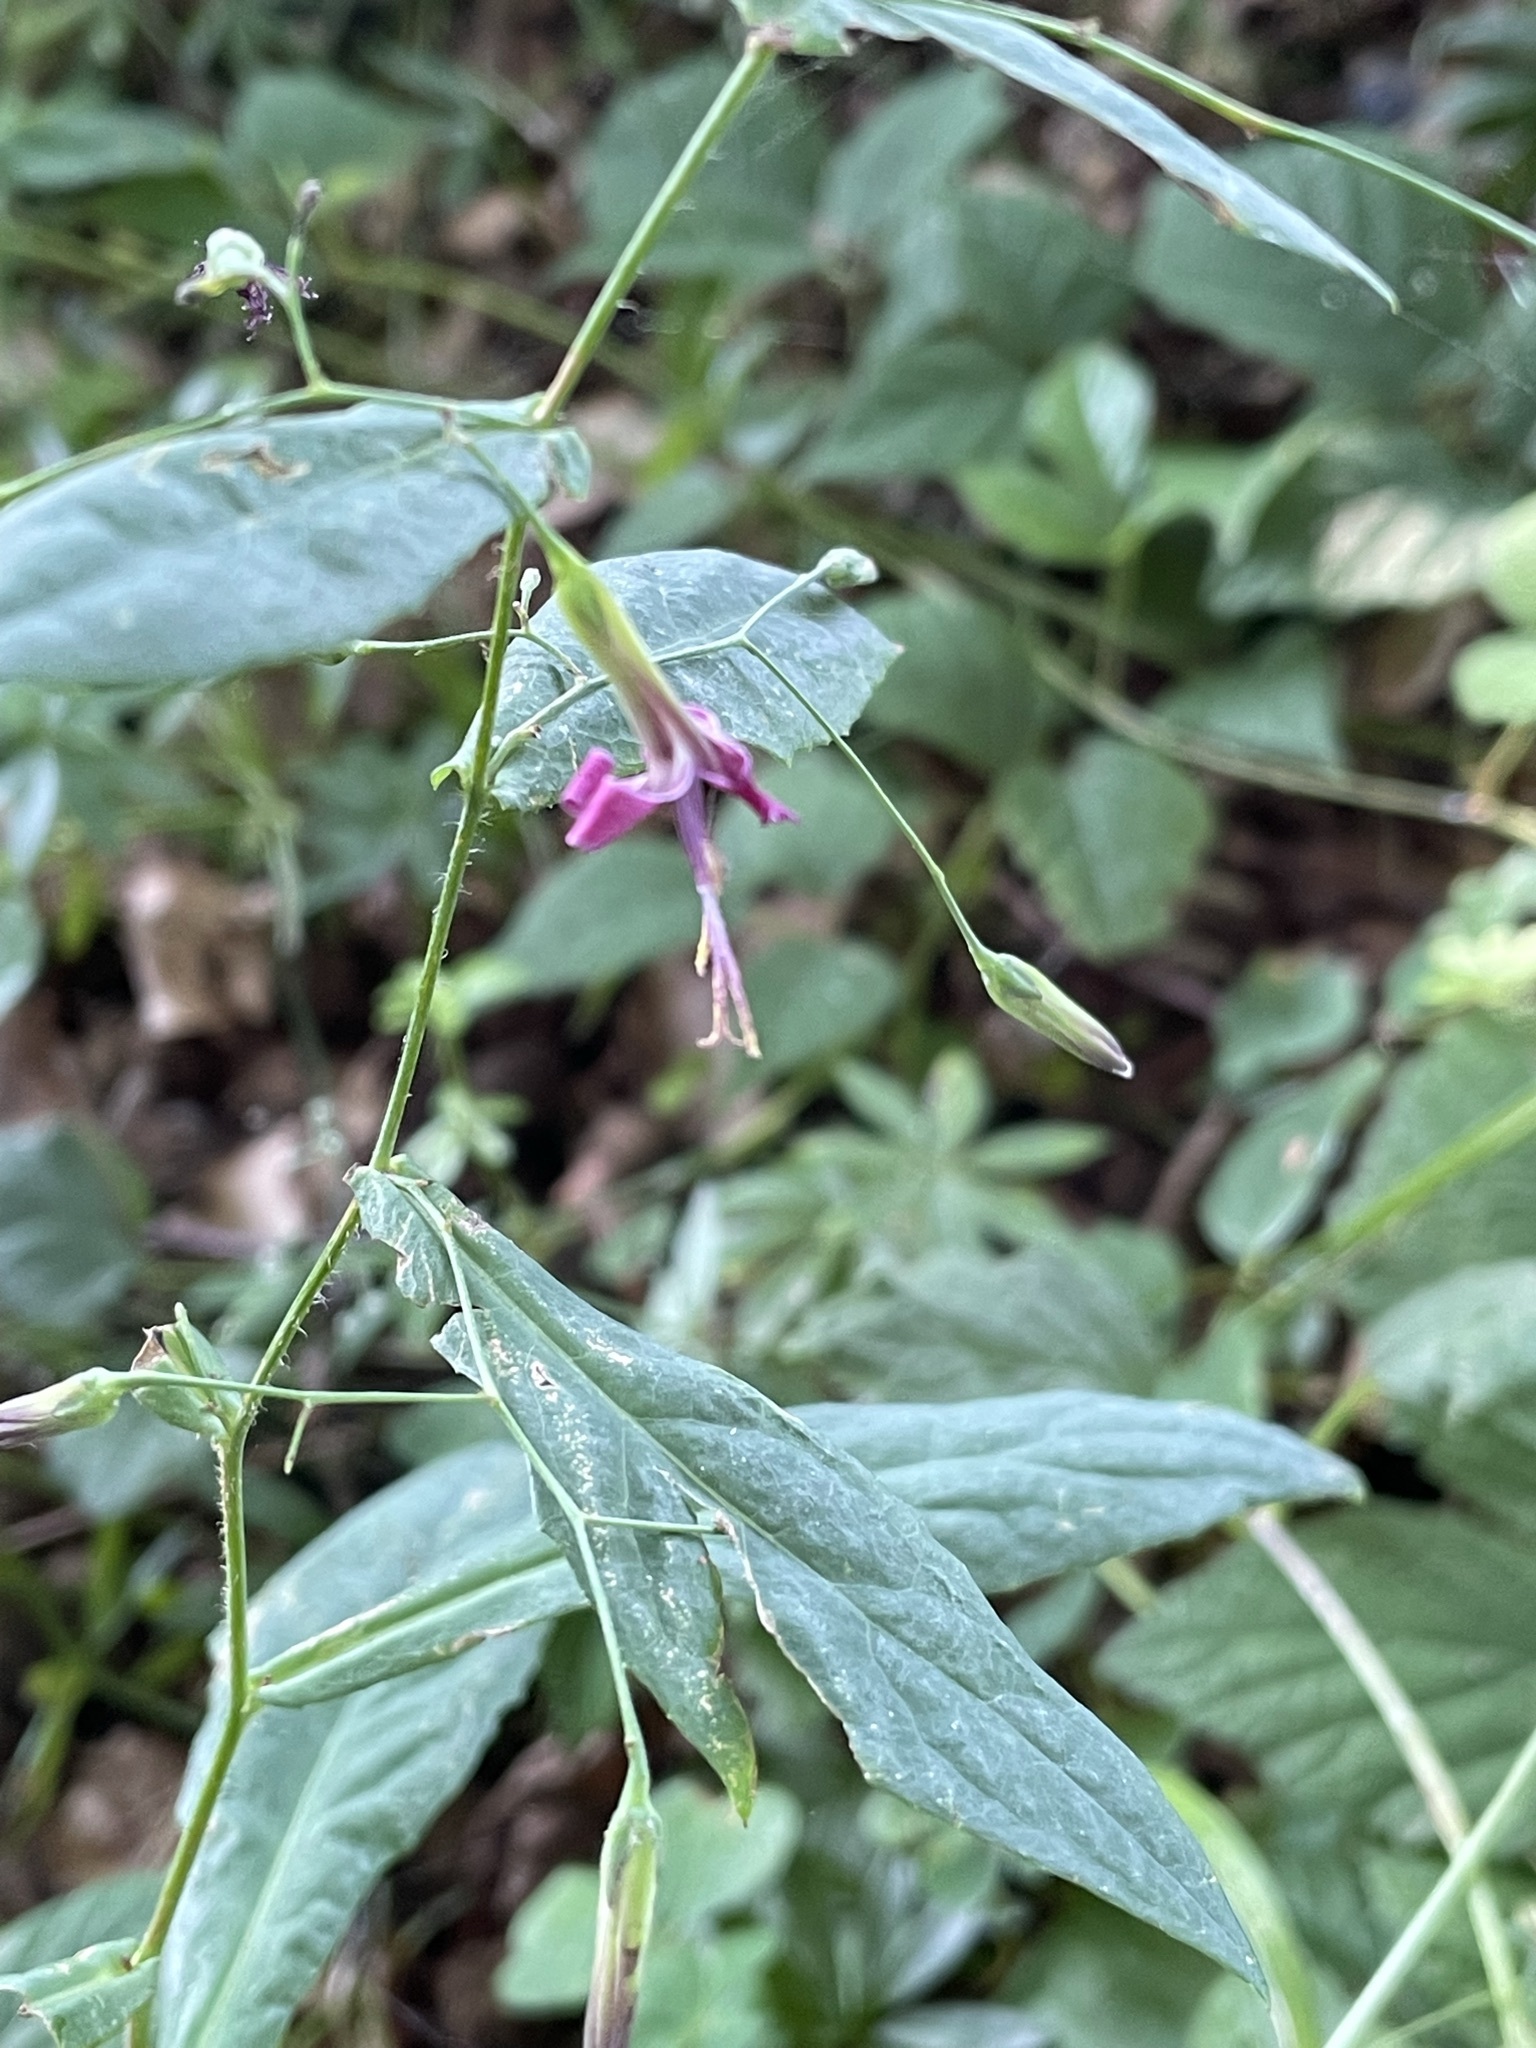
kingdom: Plantae
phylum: Tracheophyta
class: Magnoliopsida
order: Asterales
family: Asteraceae
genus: Prenanthes
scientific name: Prenanthes purpurea
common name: Purple lettuce
